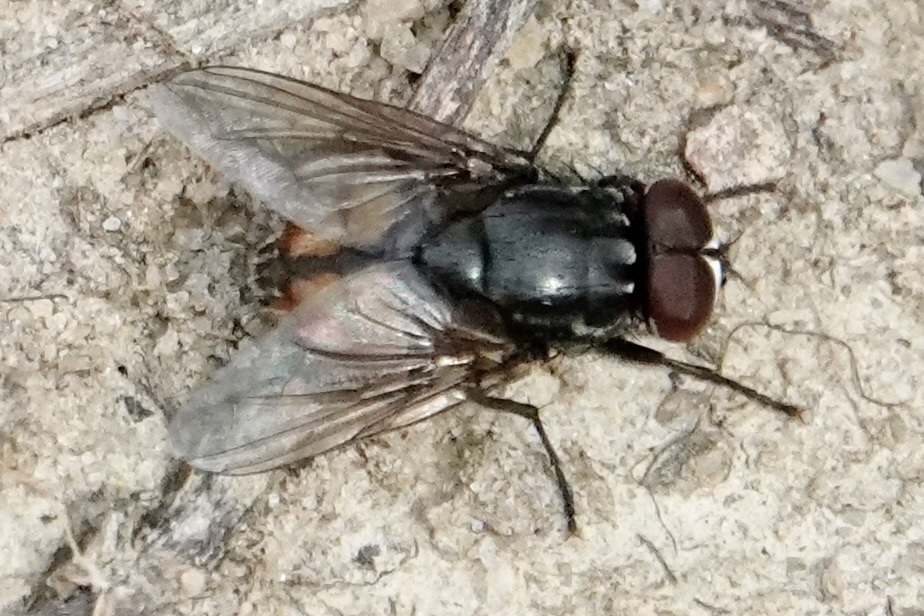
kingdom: Animalia
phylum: Arthropoda
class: Insecta
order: Diptera
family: Muscidae
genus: Musca
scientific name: Musca autumnalis
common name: Face fly
